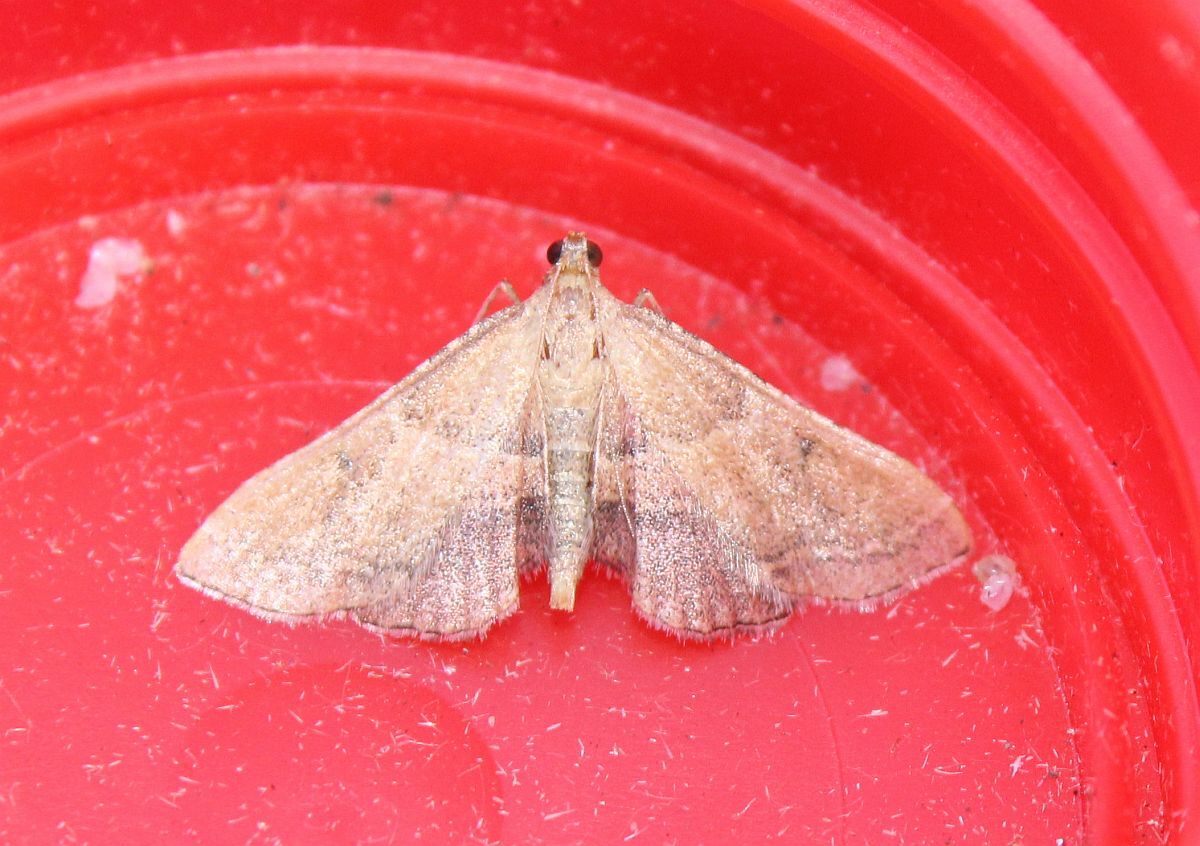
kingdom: Animalia
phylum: Arthropoda
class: Insecta
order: Lepidoptera
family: Pyralidae
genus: Endotricha
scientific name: Endotricha flammealis
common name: Rosy tabby
